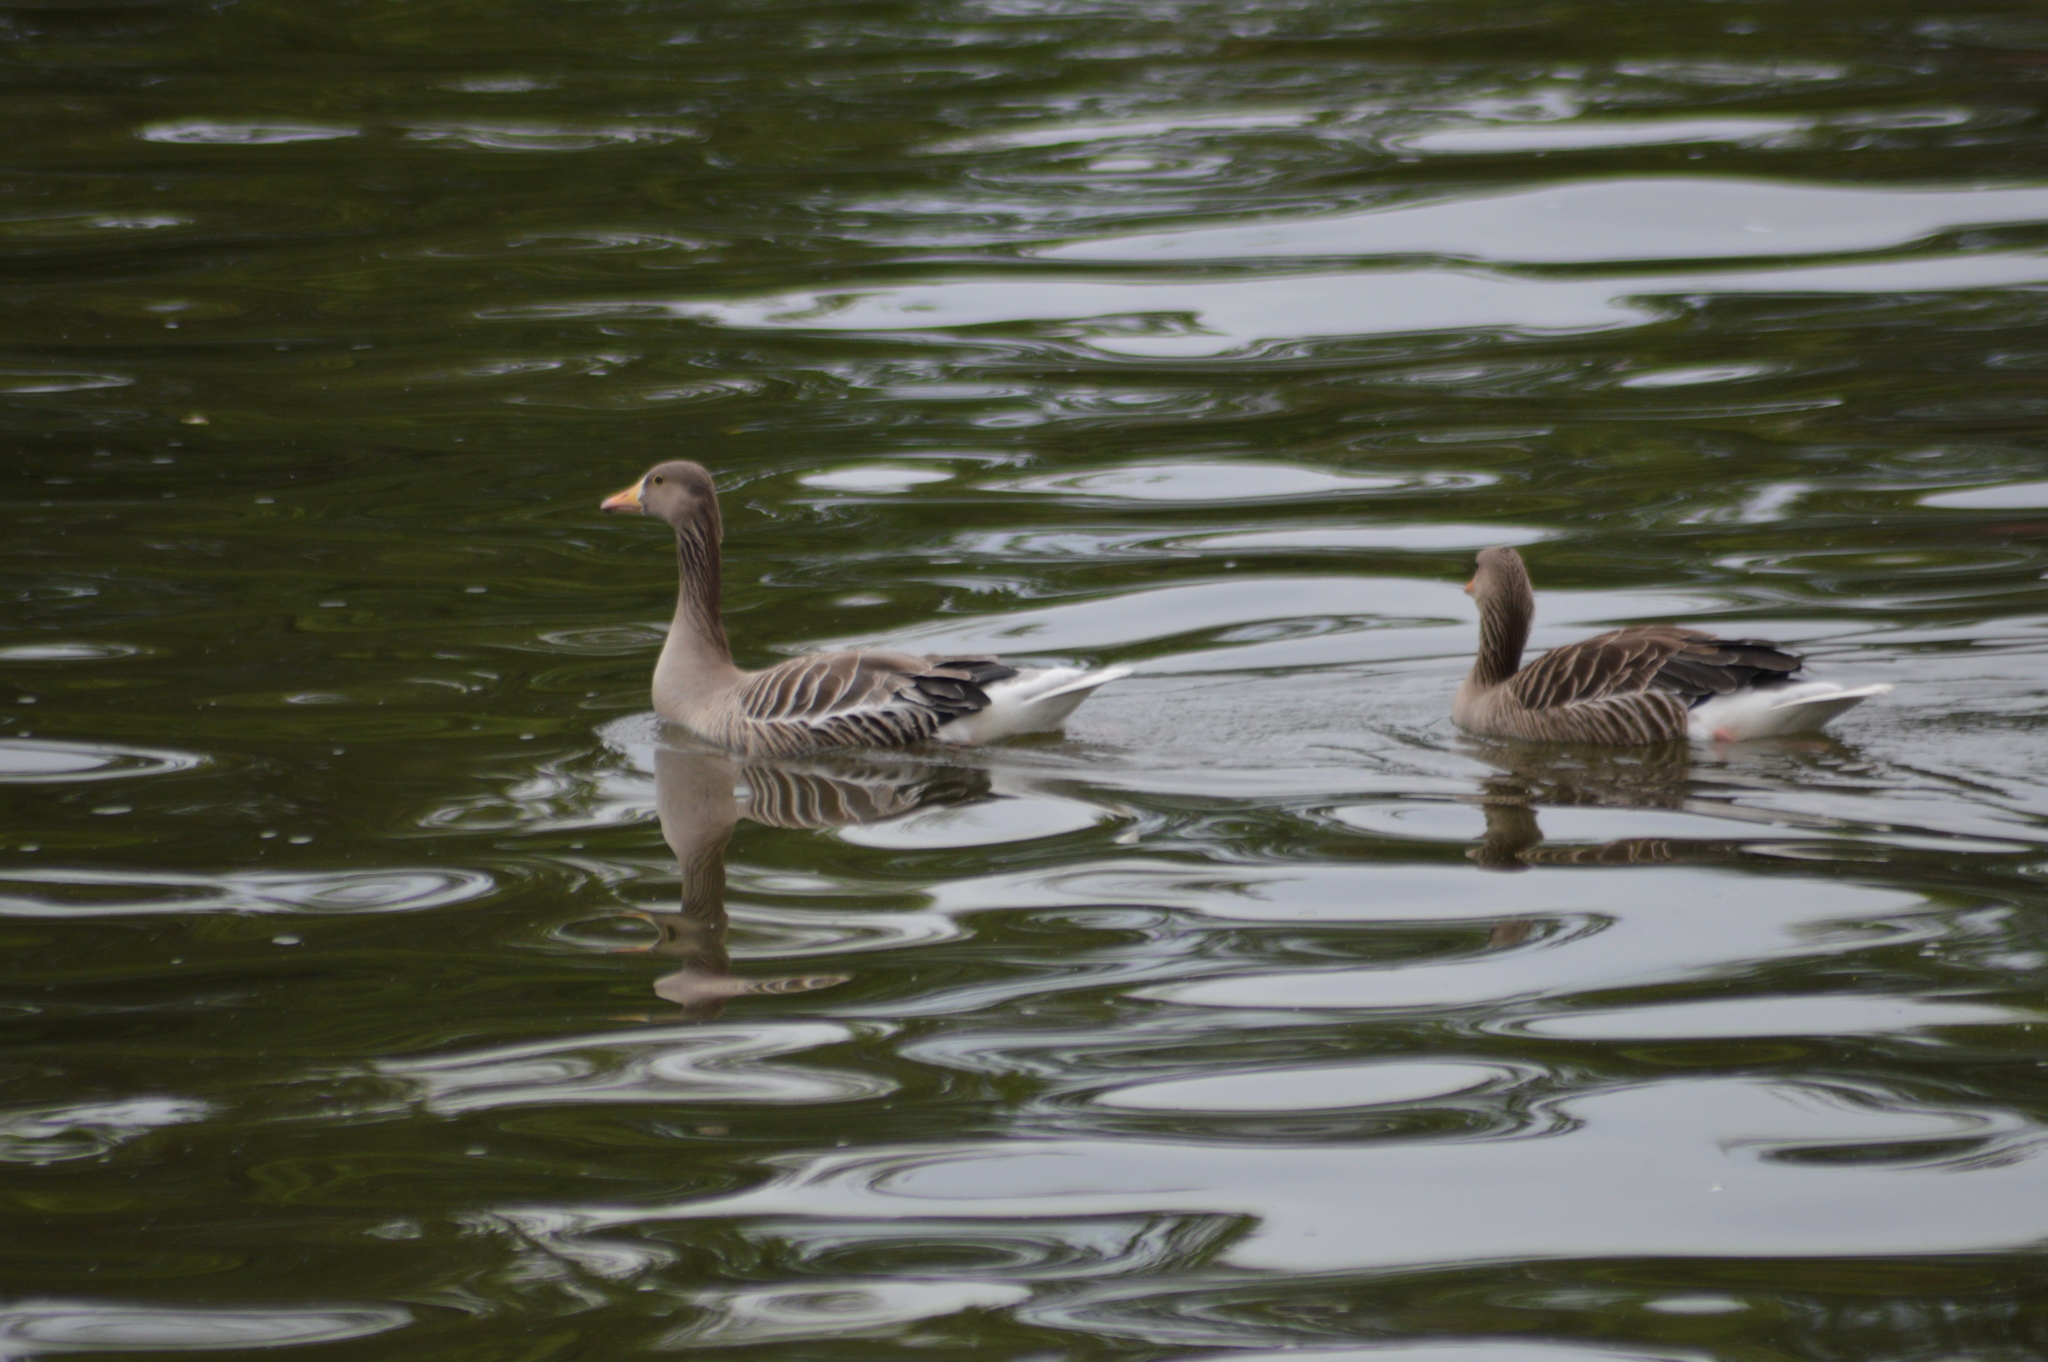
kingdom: Animalia
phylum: Chordata
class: Aves
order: Anseriformes
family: Anatidae
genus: Anser
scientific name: Anser anser
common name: Greylag goose
